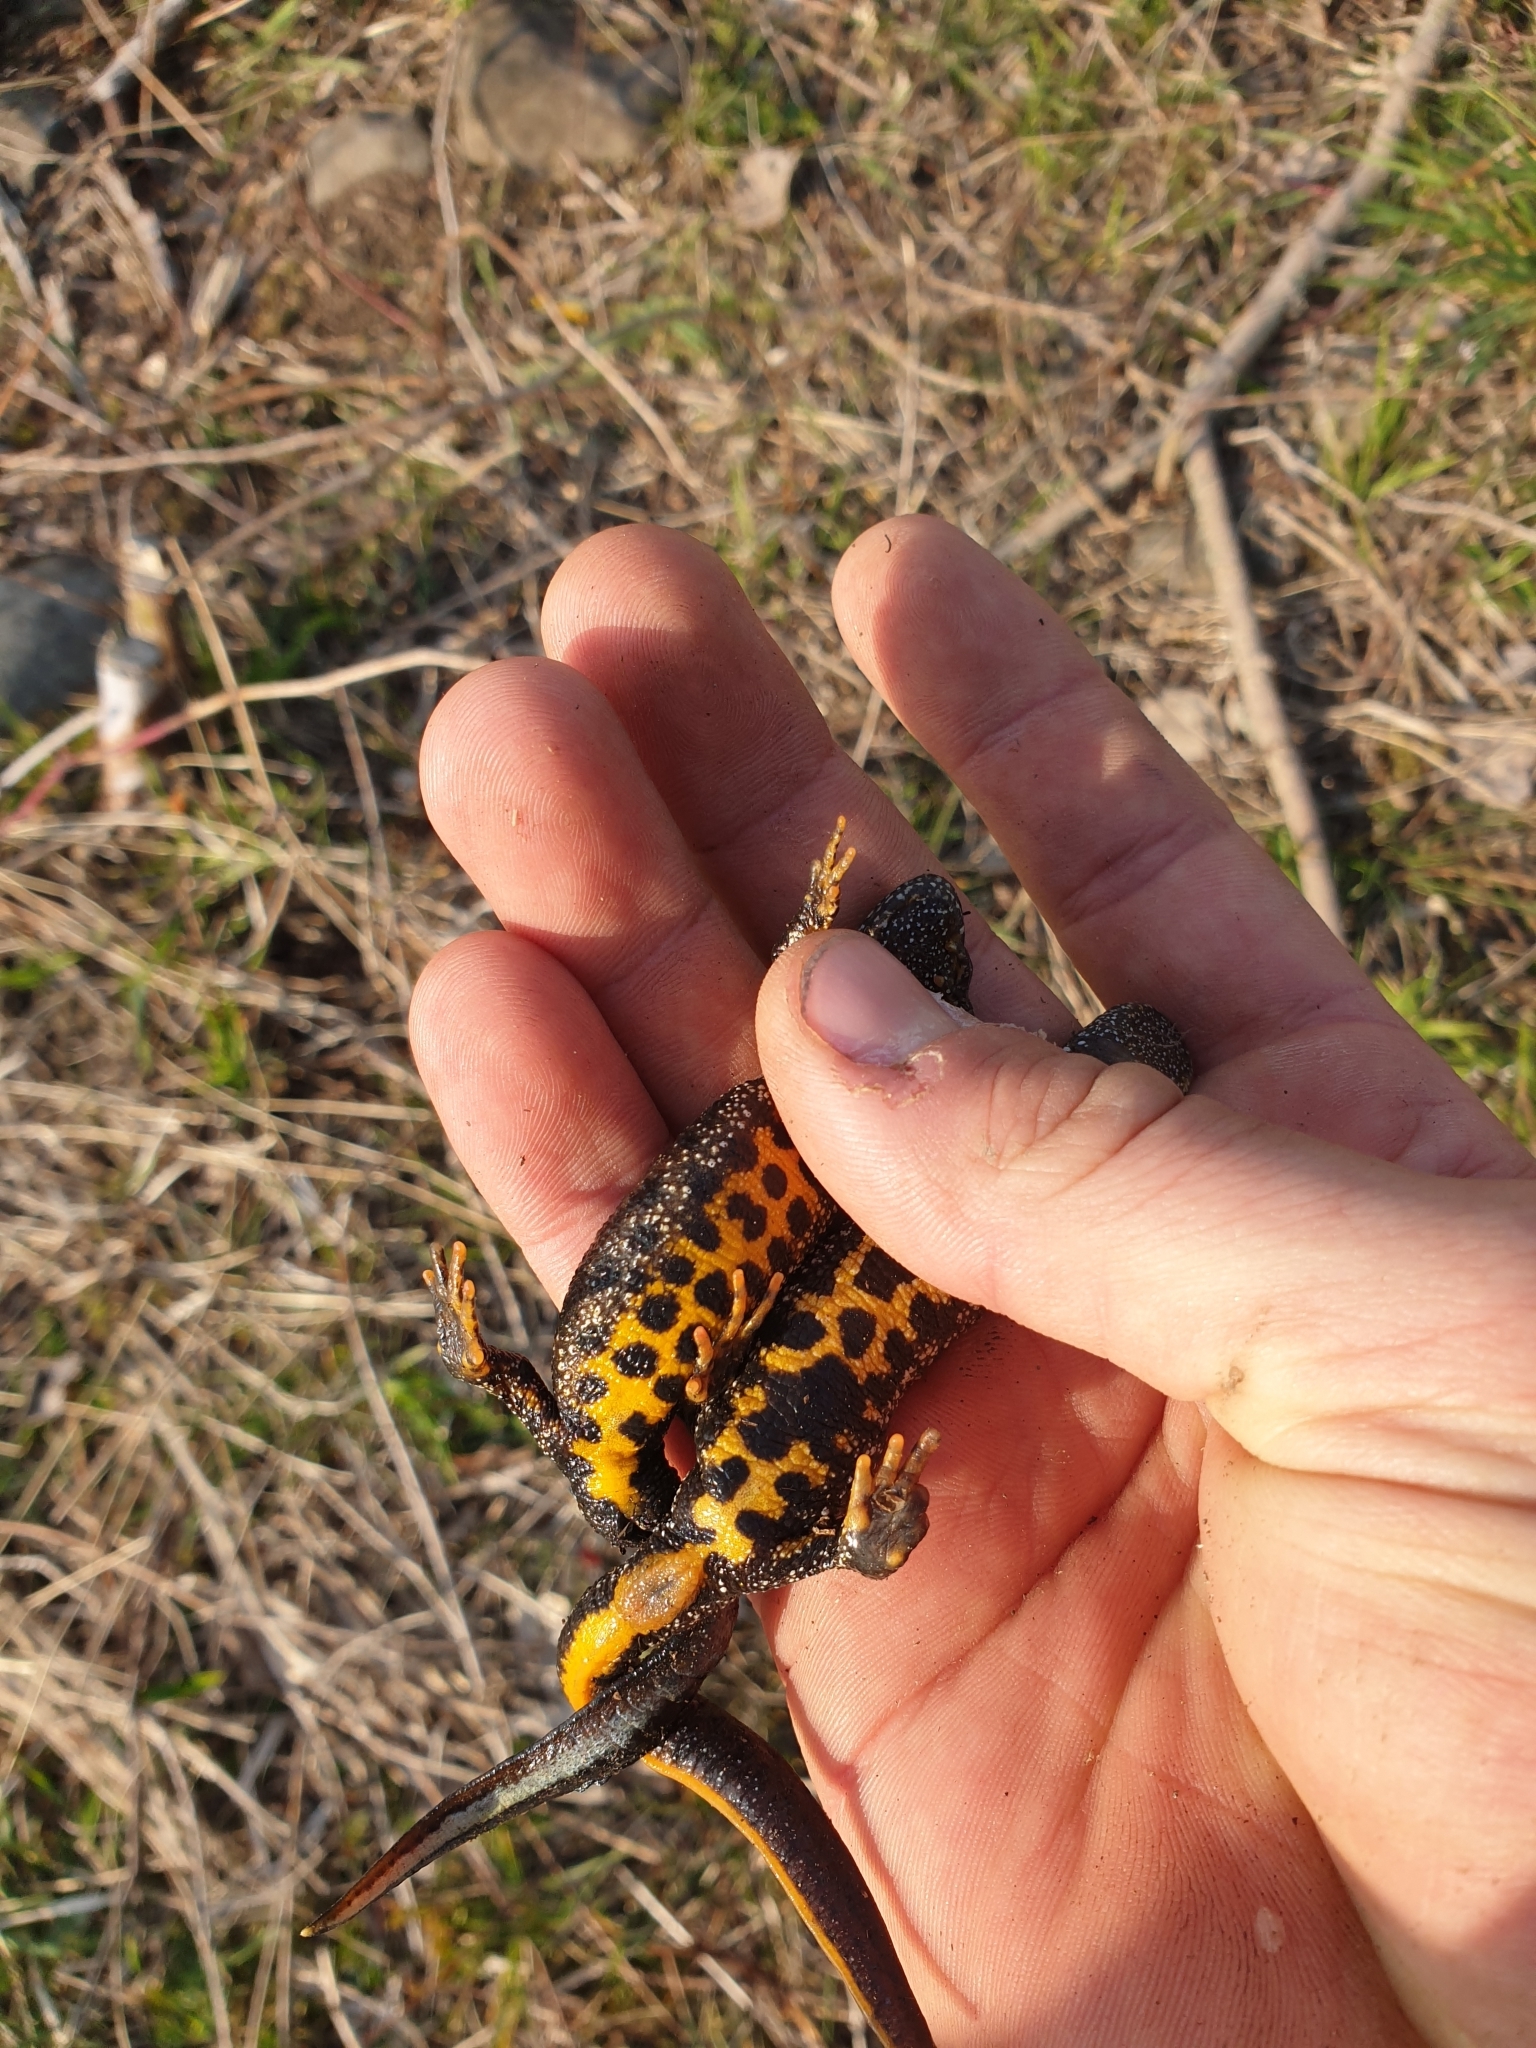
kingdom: Animalia
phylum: Chordata
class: Amphibia
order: Caudata
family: Salamandridae
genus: Triturus
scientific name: Triturus cristatus
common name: Crested newt
